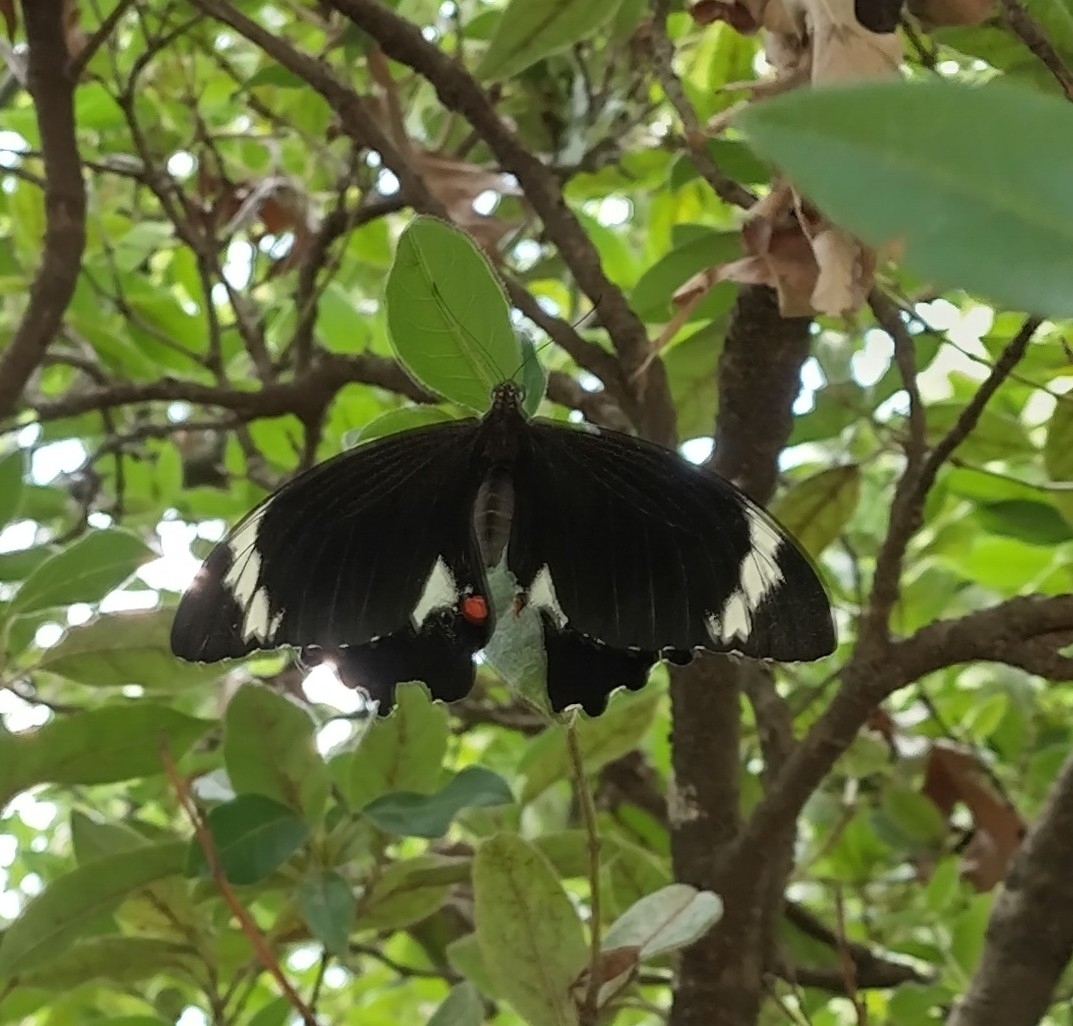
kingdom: Animalia
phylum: Arthropoda
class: Insecta
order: Lepidoptera
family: Papilionidae
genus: Papilio
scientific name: Papilio aegeus
